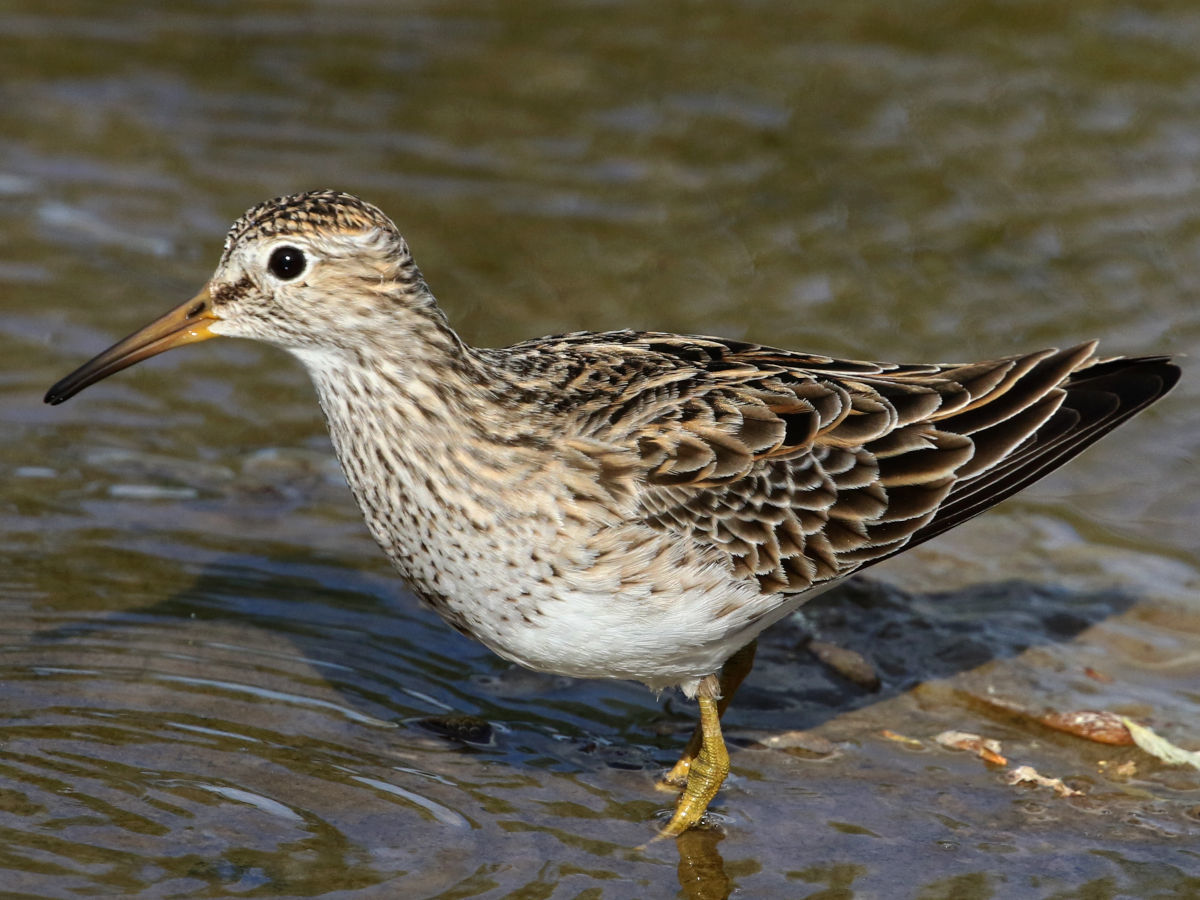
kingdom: Animalia
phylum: Chordata
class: Aves
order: Charadriiformes
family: Scolopacidae
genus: Calidris
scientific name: Calidris melanotos
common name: Pectoral sandpiper
